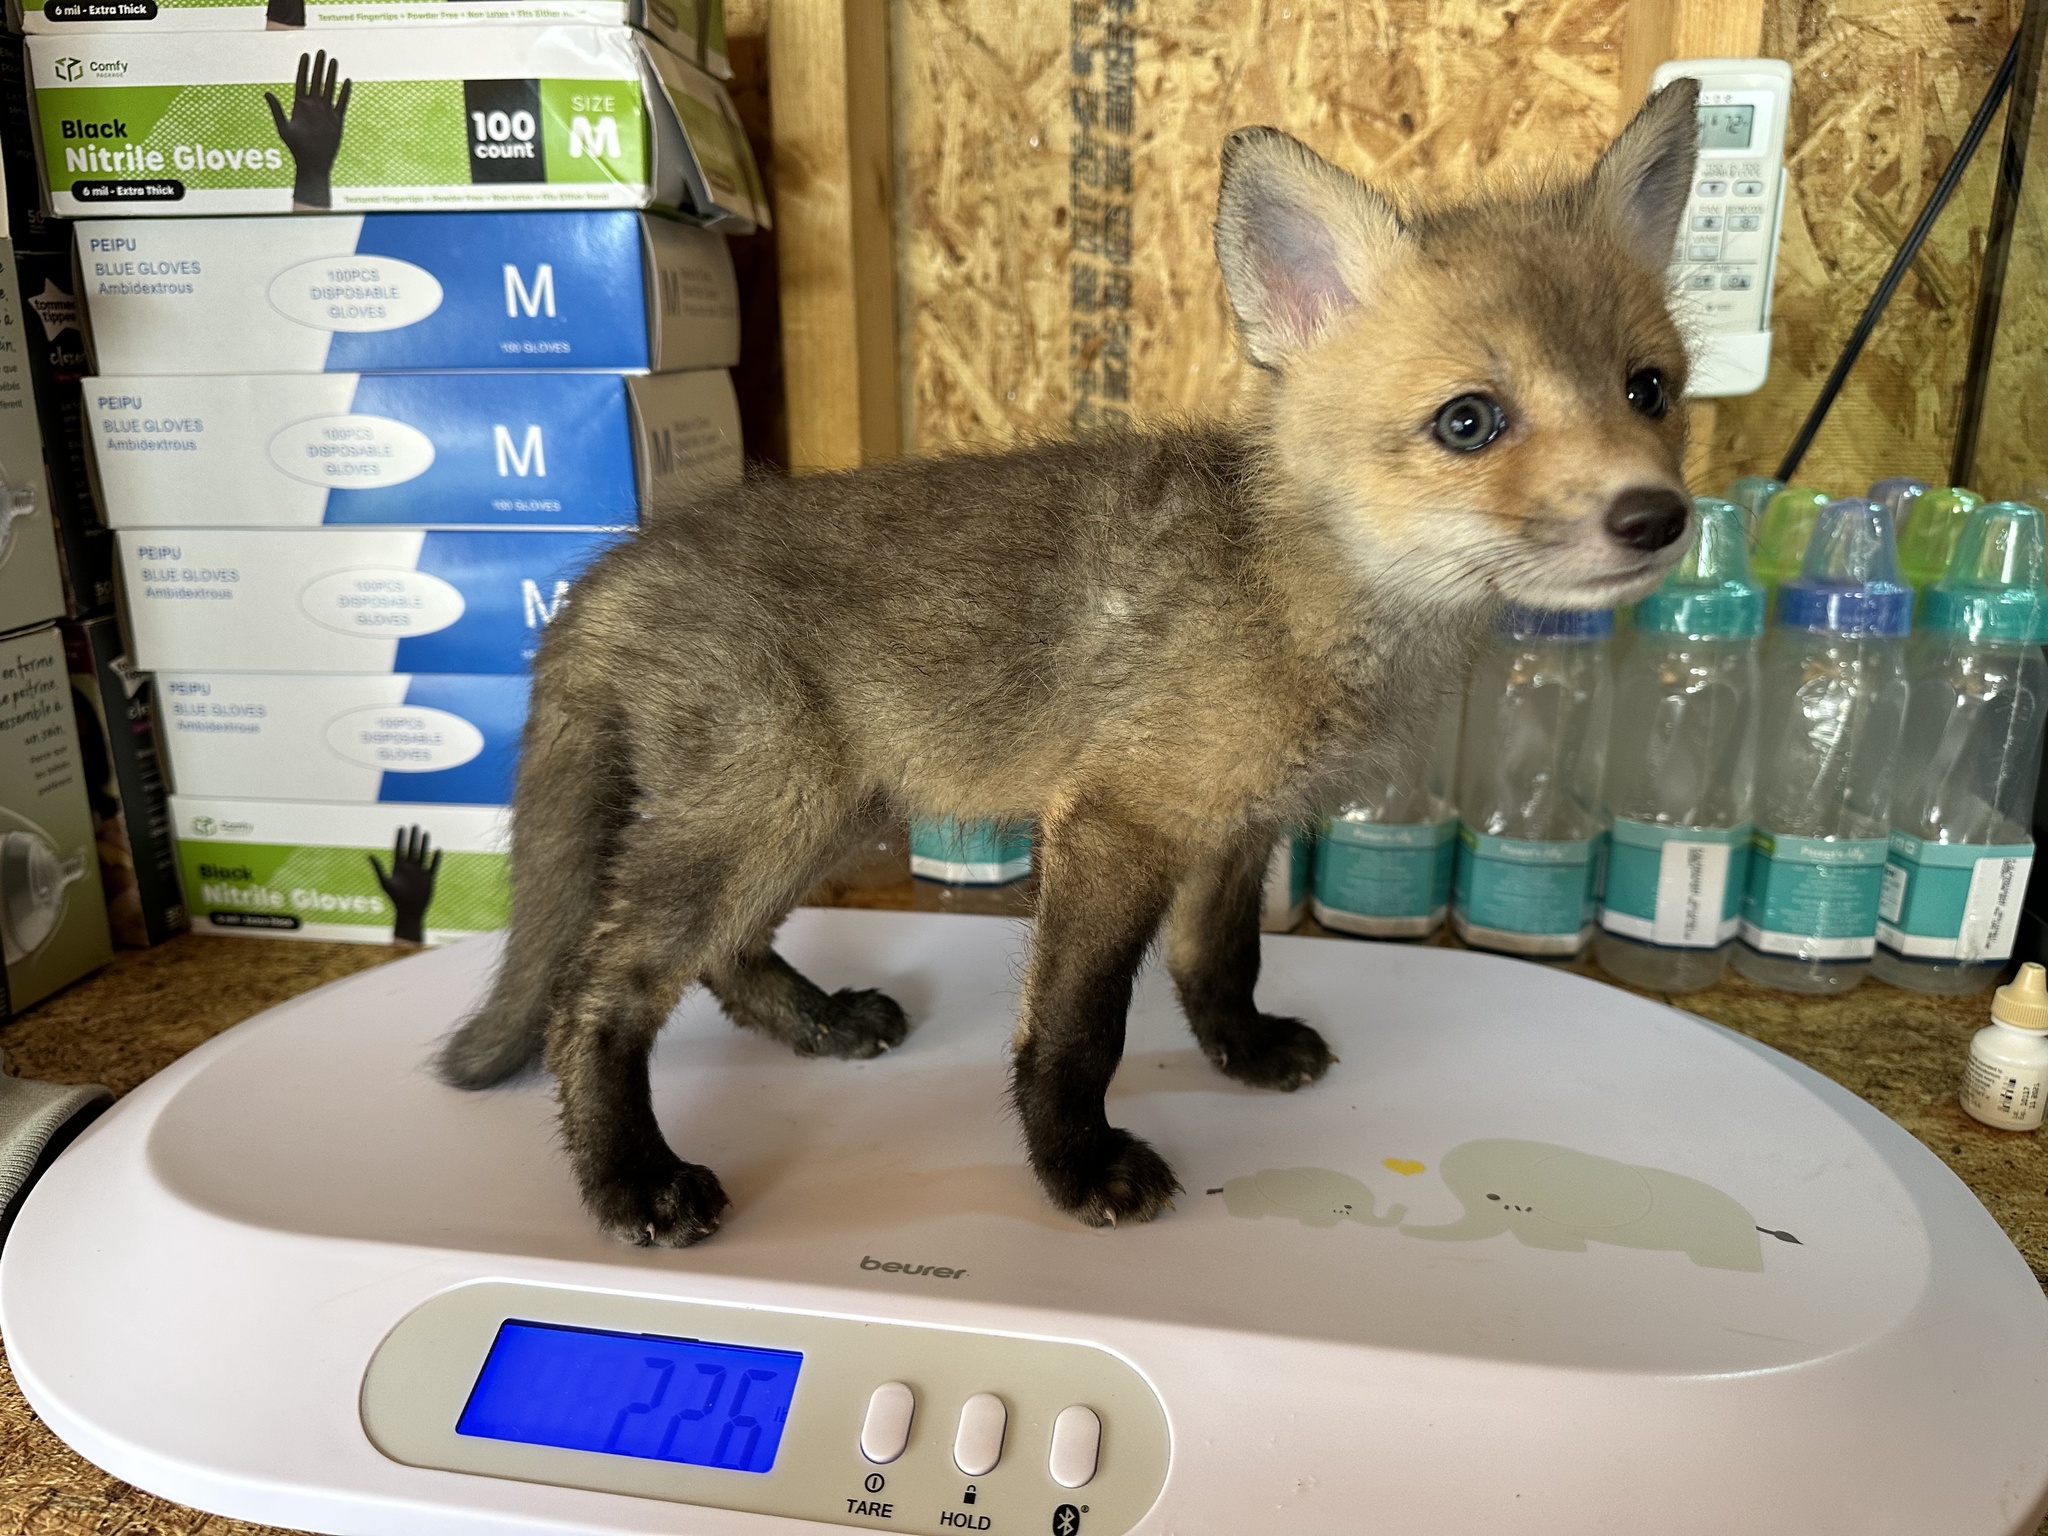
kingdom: Animalia
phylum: Chordata
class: Mammalia
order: Carnivora
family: Canidae
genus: Vulpes
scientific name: Vulpes vulpes
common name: Red fox
